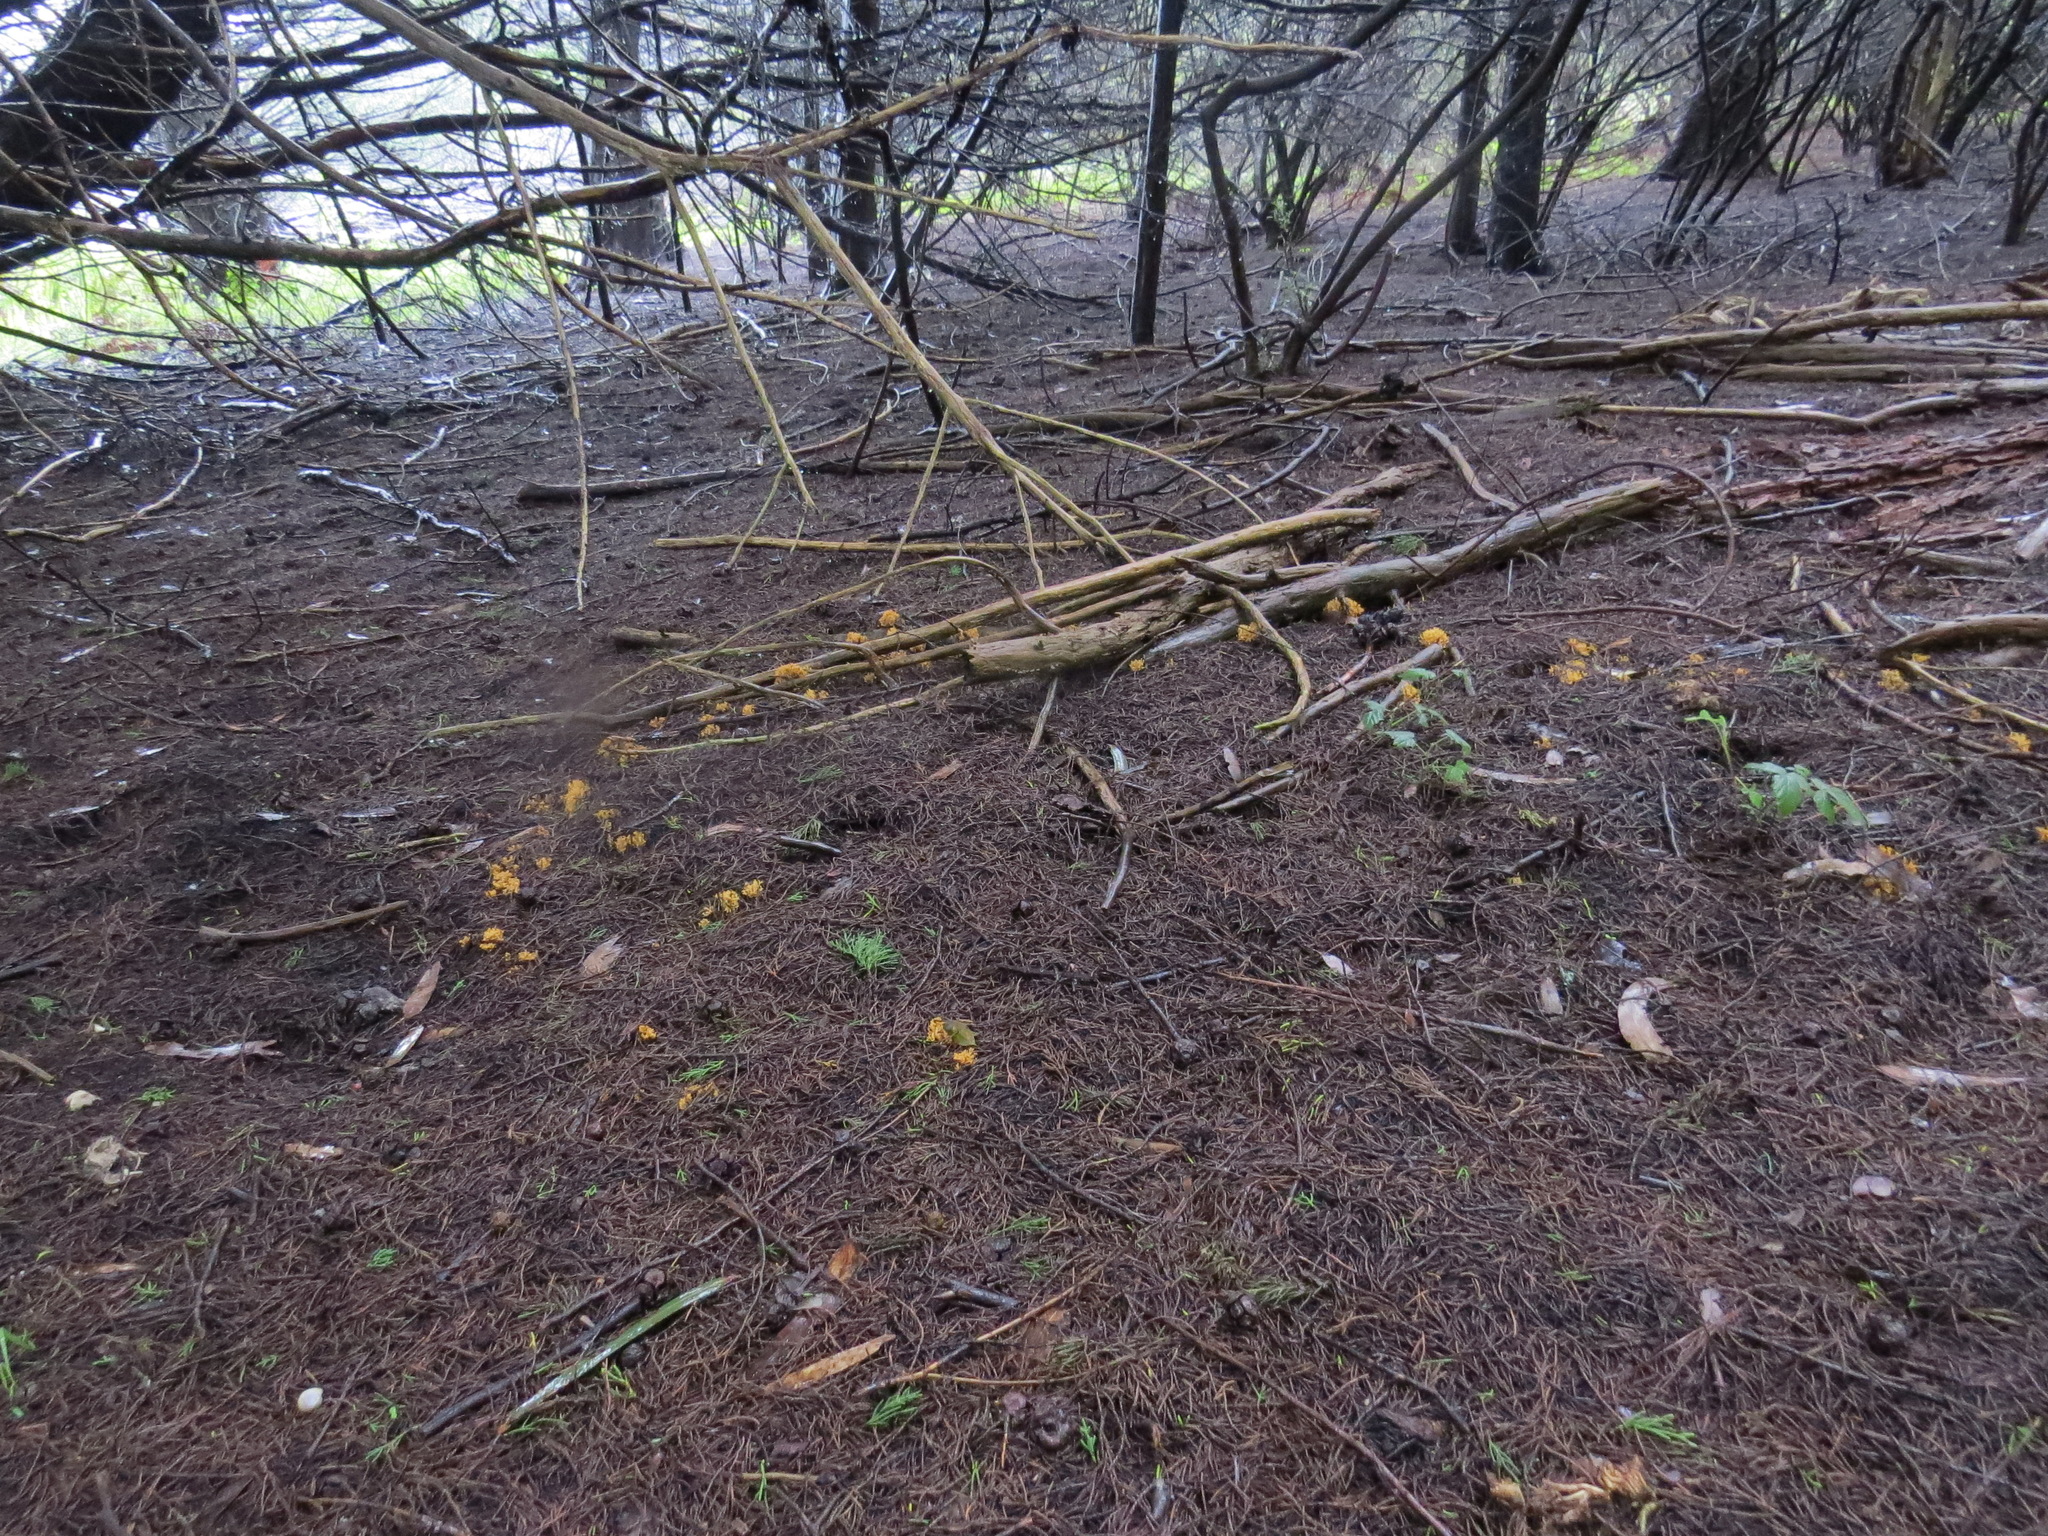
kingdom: Fungi
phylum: Basidiomycota
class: Agaricomycetes
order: Gomphales
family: Gomphaceae
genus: Phaeoclavulina
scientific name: Phaeoclavulina myceliosa
